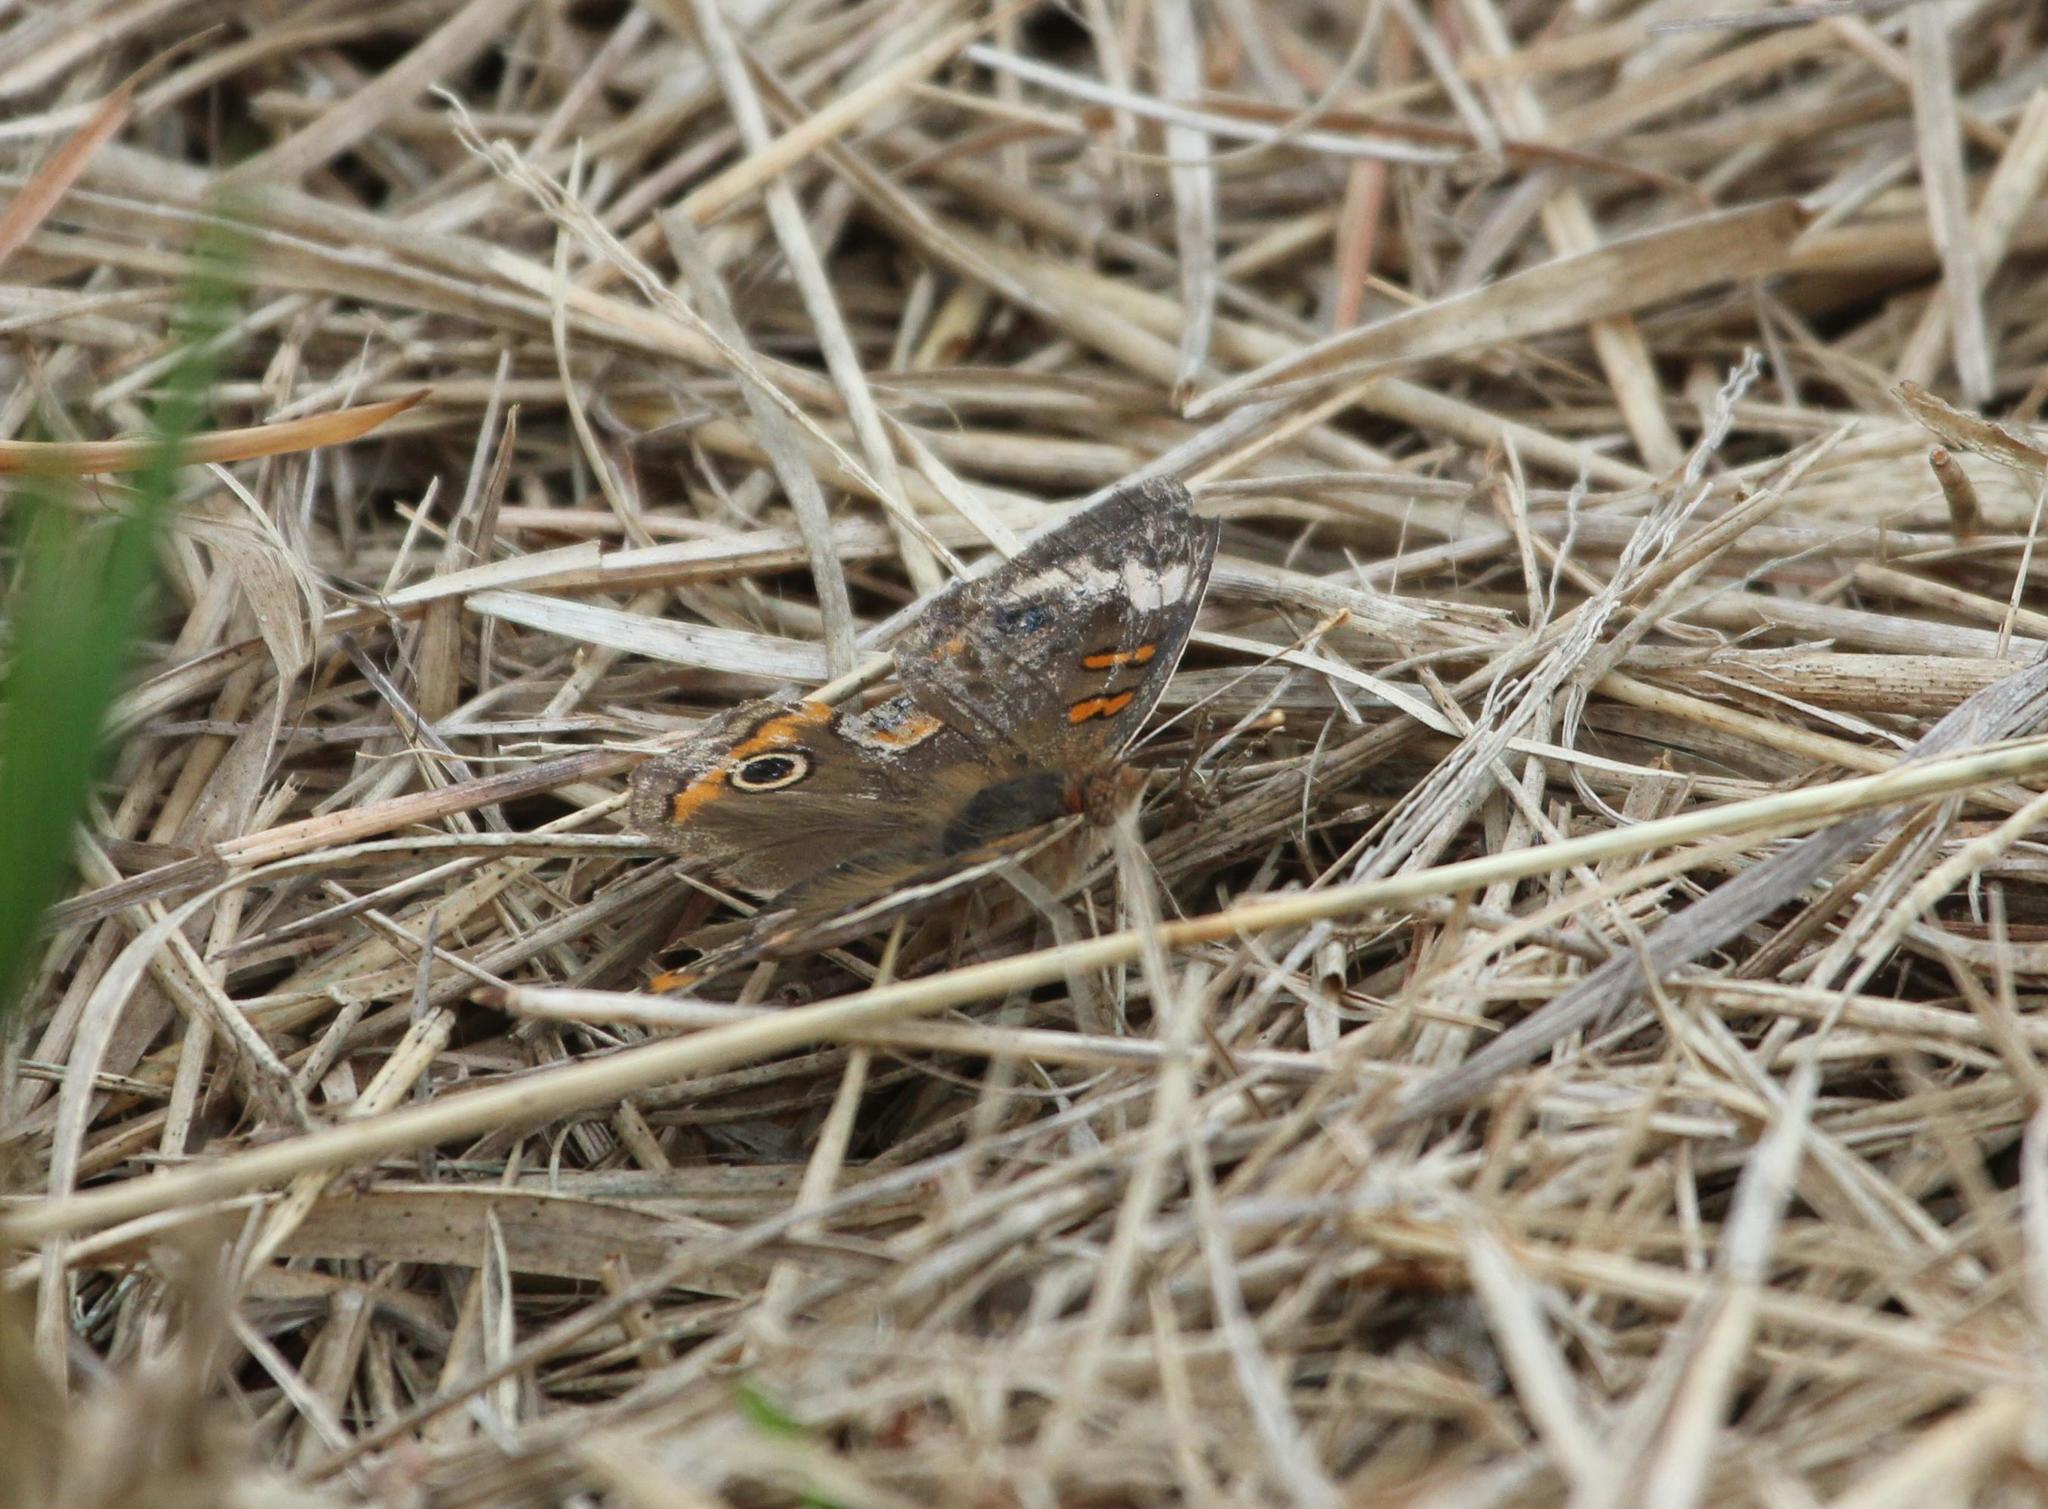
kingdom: Animalia
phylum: Arthropoda
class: Insecta
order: Lepidoptera
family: Nymphalidae
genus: Junonia
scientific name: Junonia coenia
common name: Common buckeye
